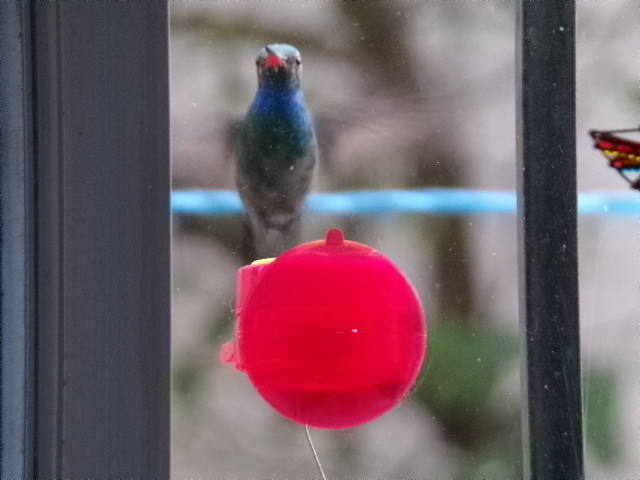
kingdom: Animalia
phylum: Chordata
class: Aves
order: Apodiformes
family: Trochilidae
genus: Cynanthus
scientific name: Cynanthus latirostris
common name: Broad-billed hummingbird
